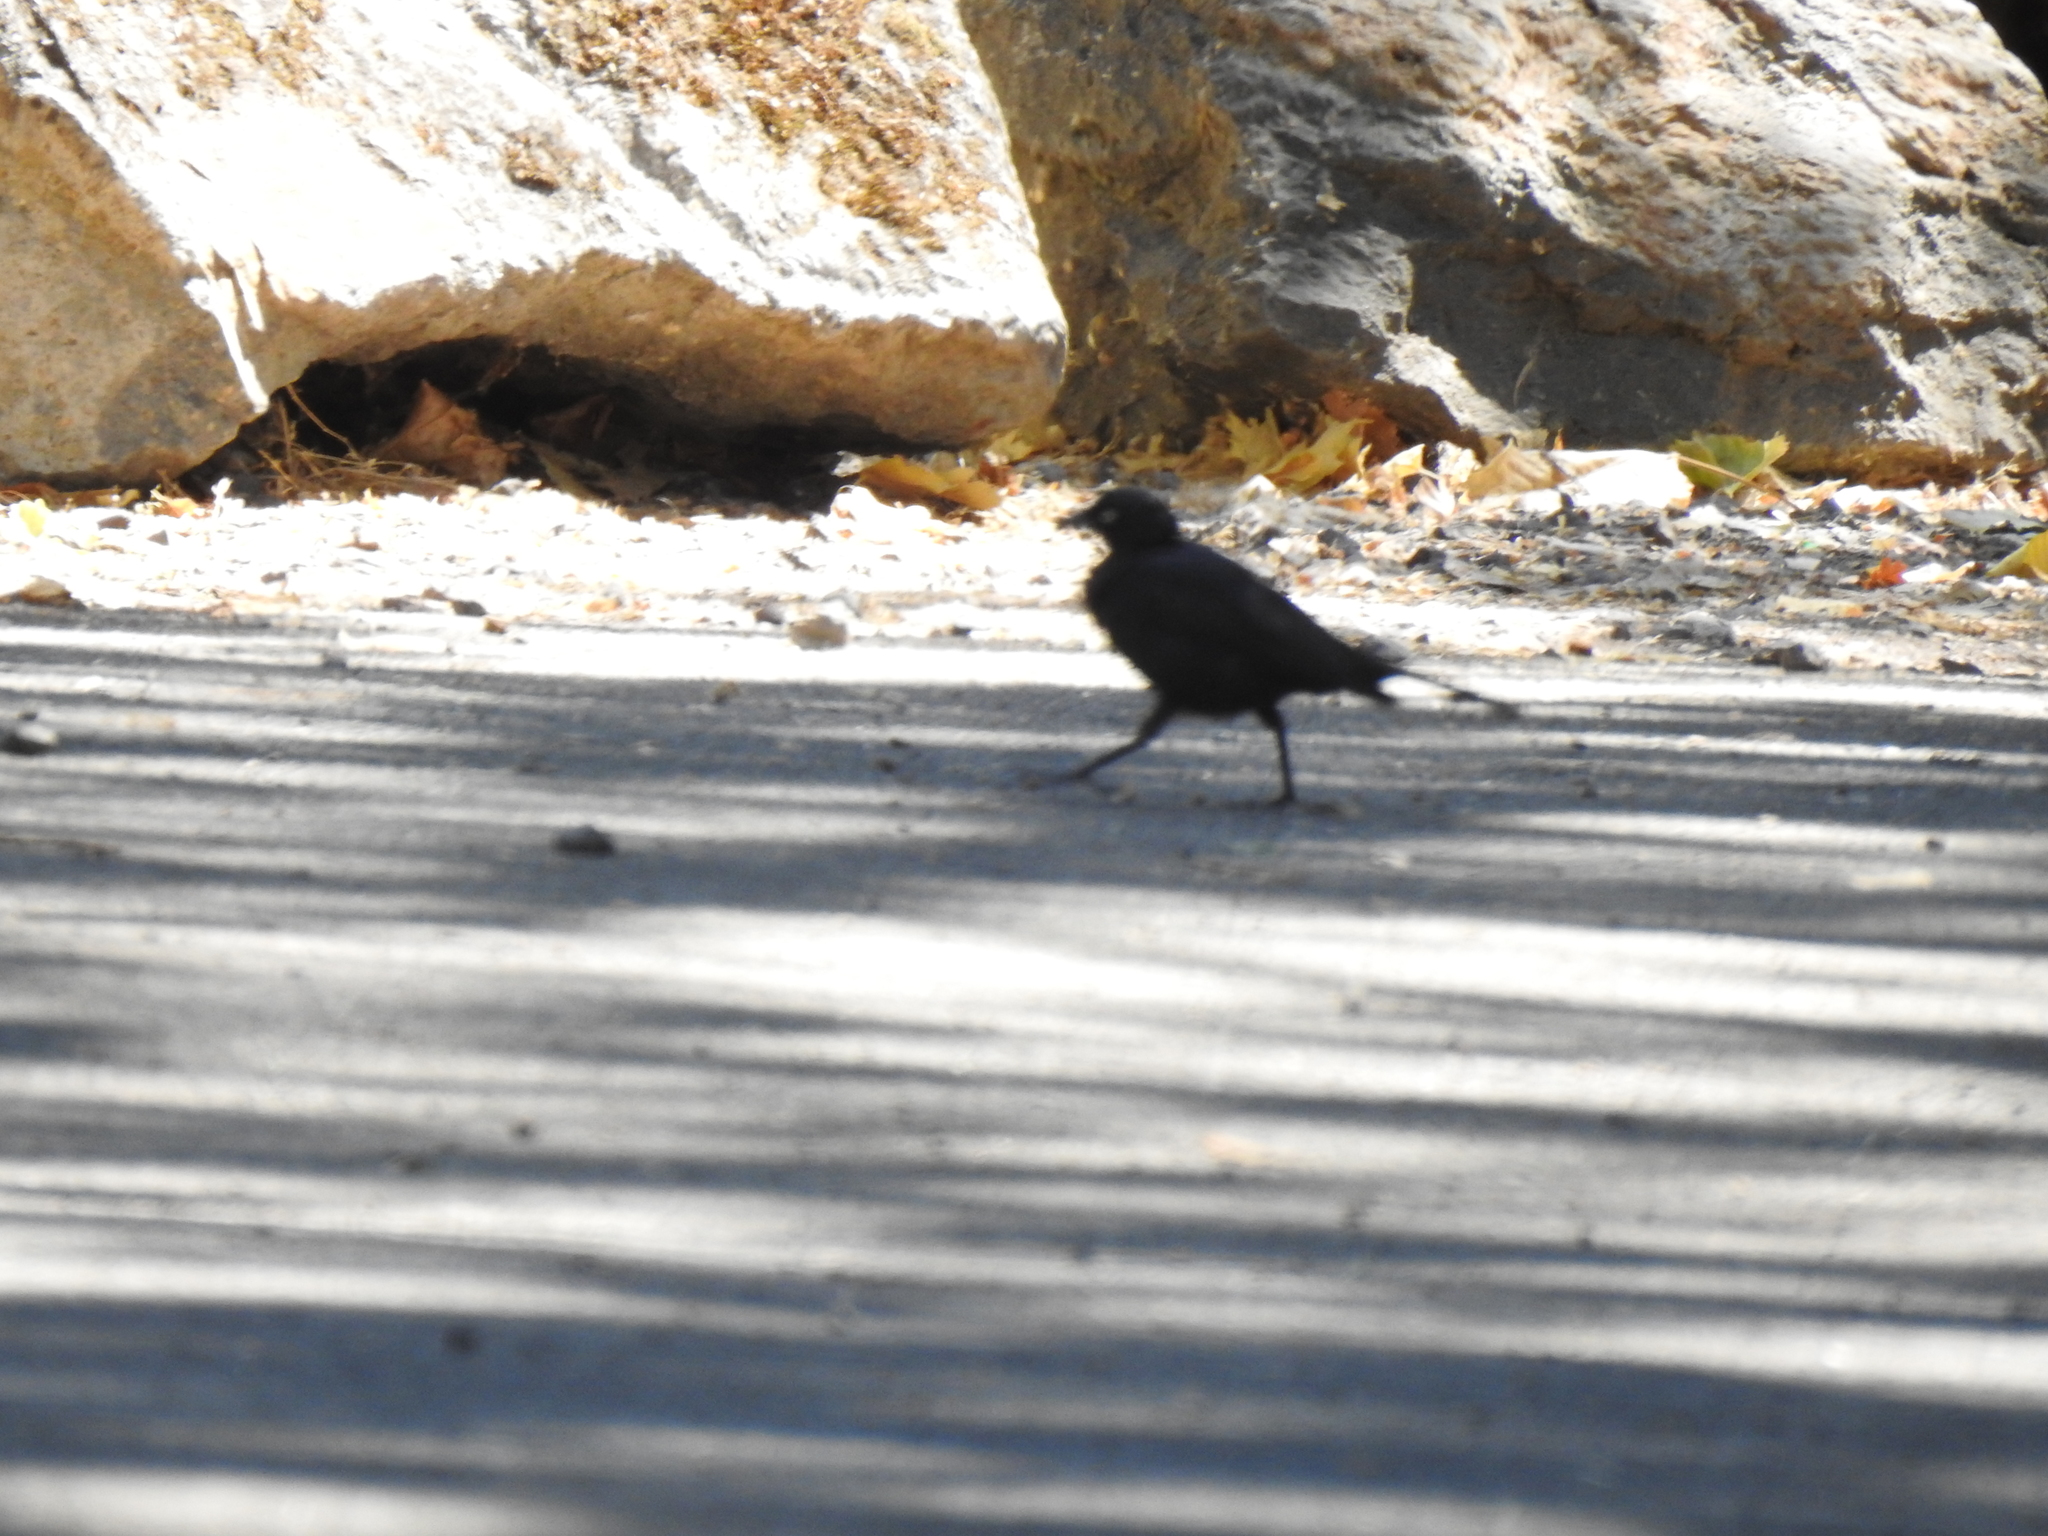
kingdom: Animalia
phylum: Chordata
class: Aves
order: Passeriformes
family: Icteridae
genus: Euphagus
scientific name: Euphagus cyanocephalus
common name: Brewer's blackbird
